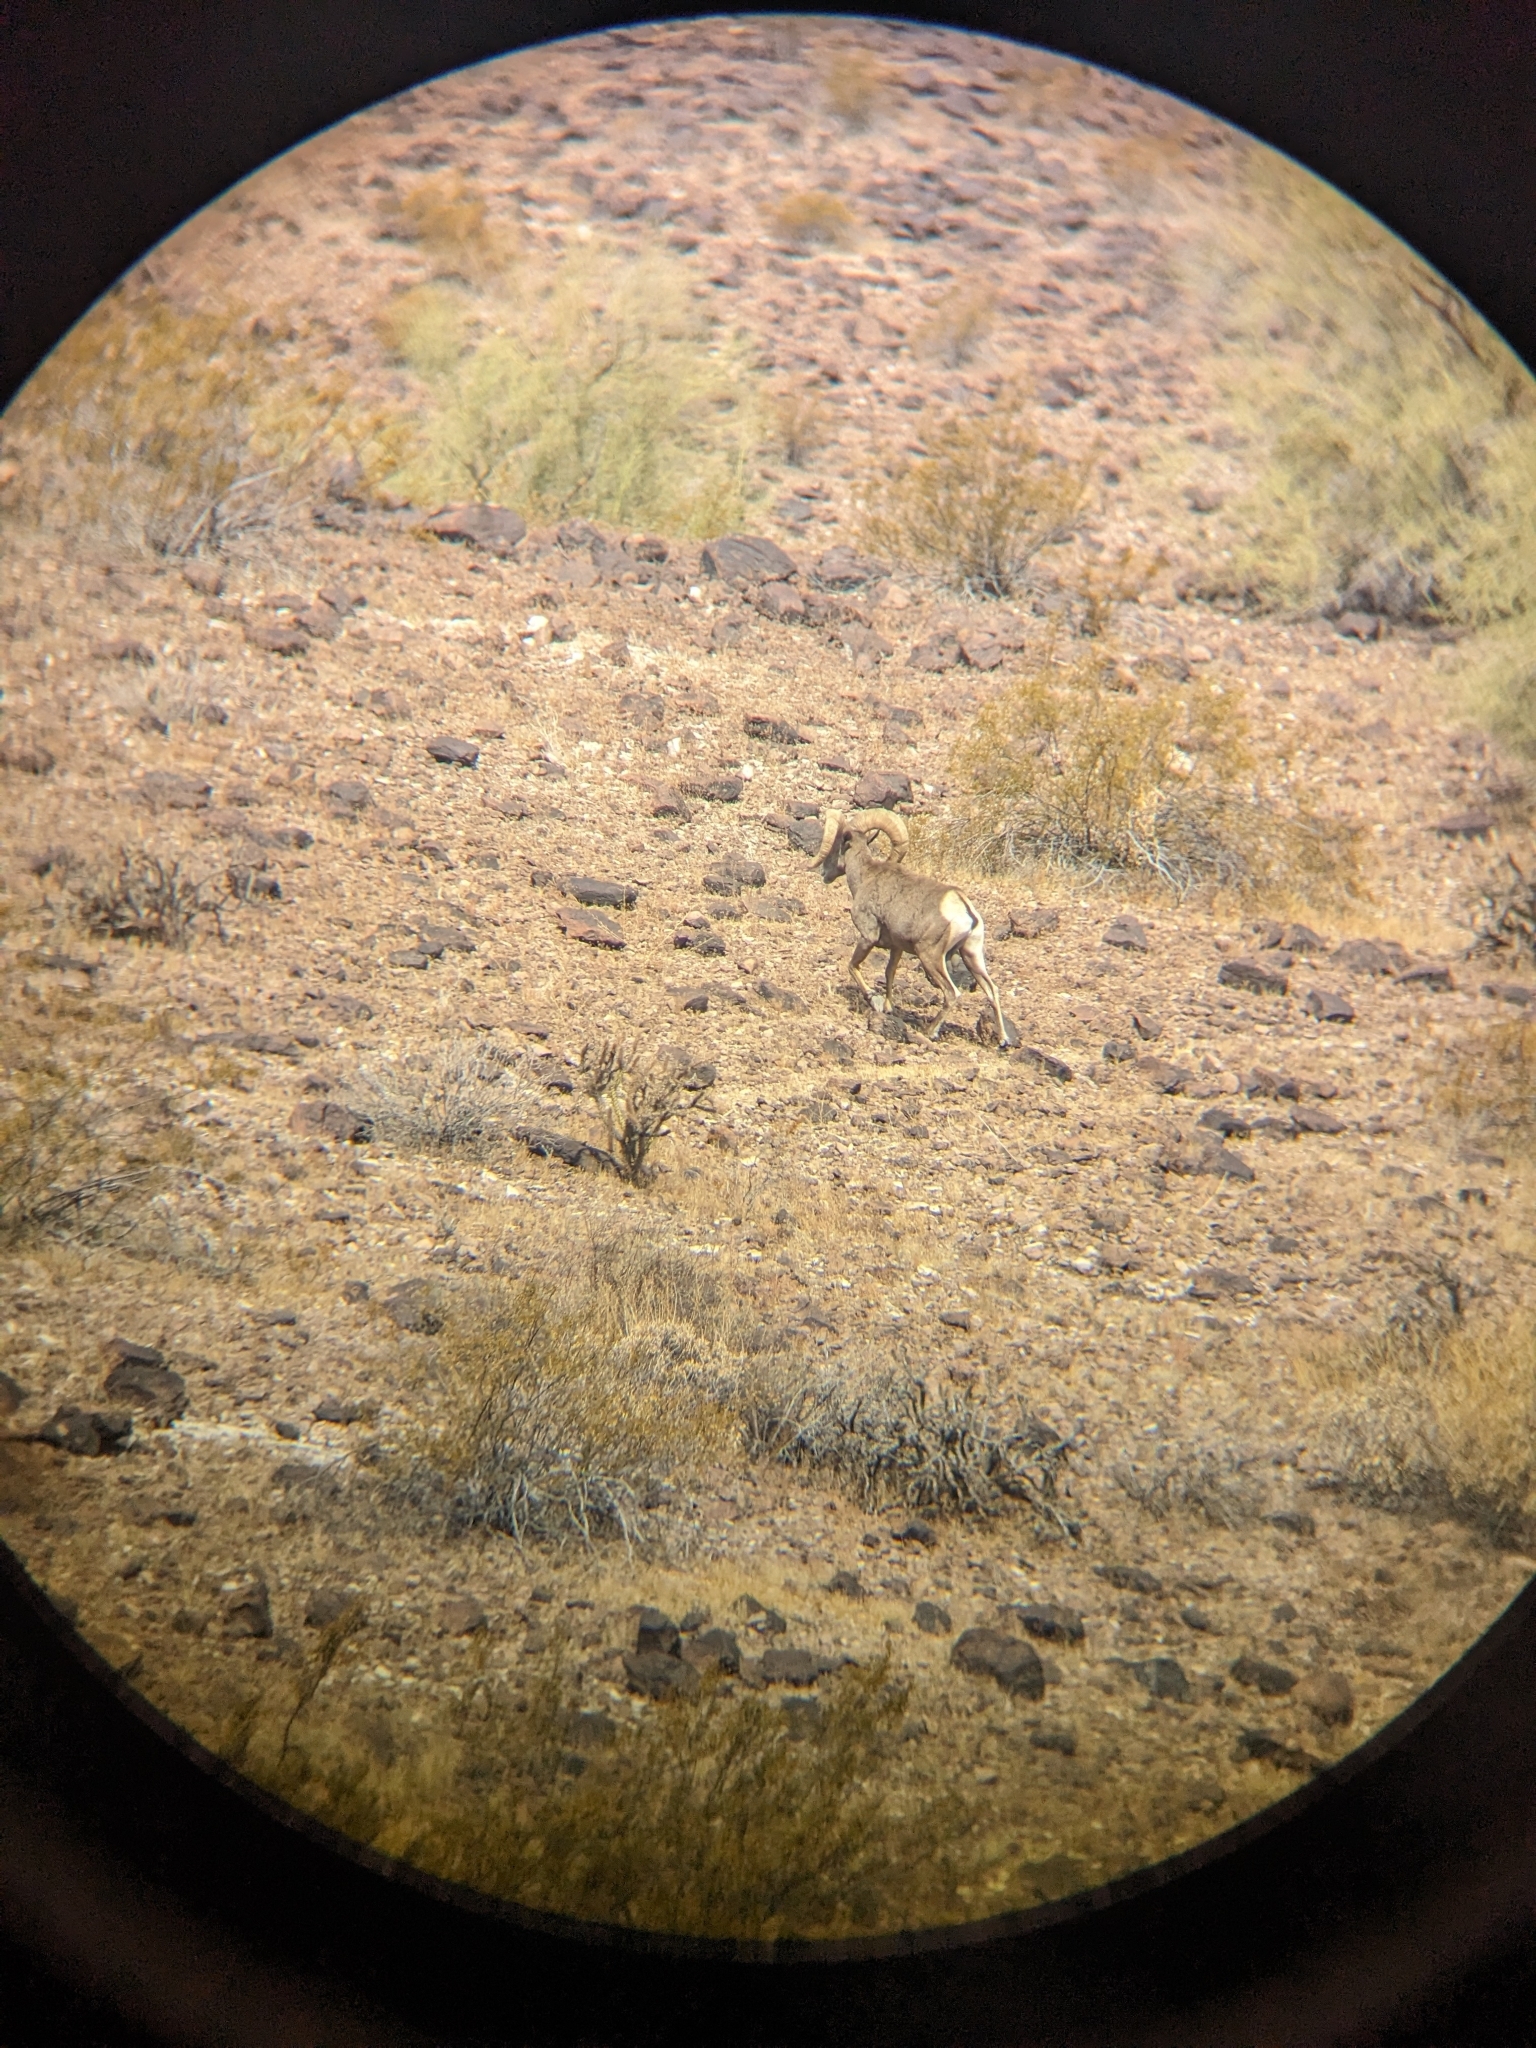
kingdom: Animalia
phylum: Chordata
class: Mammalia
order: Artiodactyla
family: Bovidae
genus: Ovis
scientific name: Ovis canadensis
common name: Bighorn sheep
